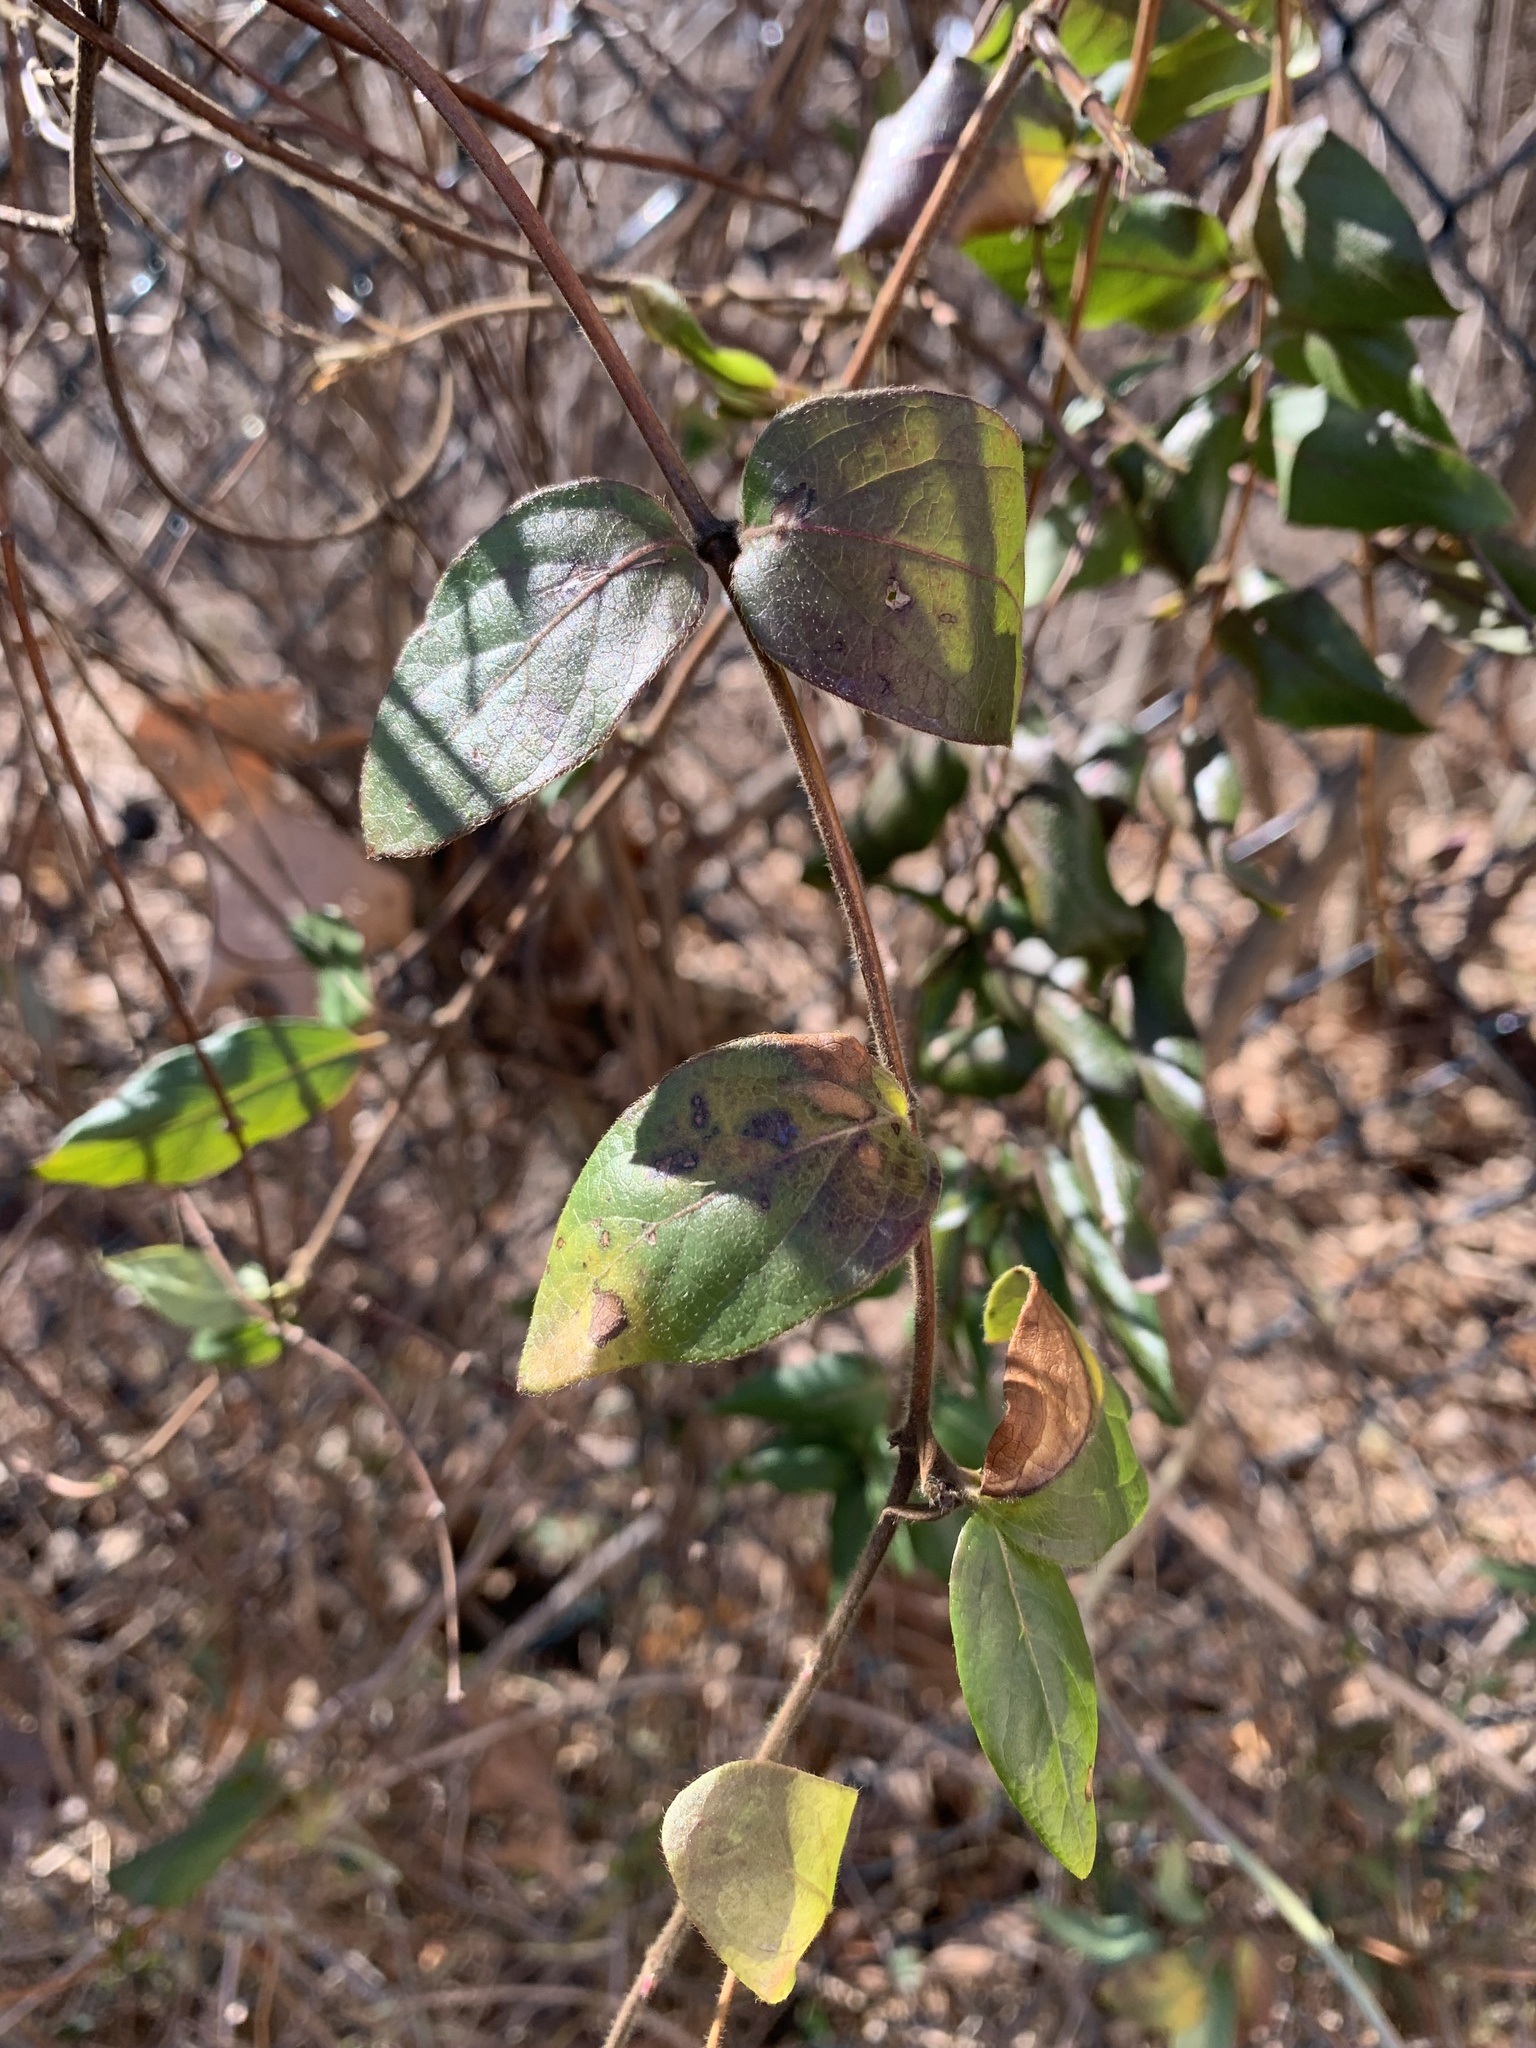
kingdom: Plantae
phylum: Tracheophyta
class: Magnoliopsida
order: Dipsacales
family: Caprifoliaceae
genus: Lonicera
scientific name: Lonicera japonica
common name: Japanese honeysuckle
